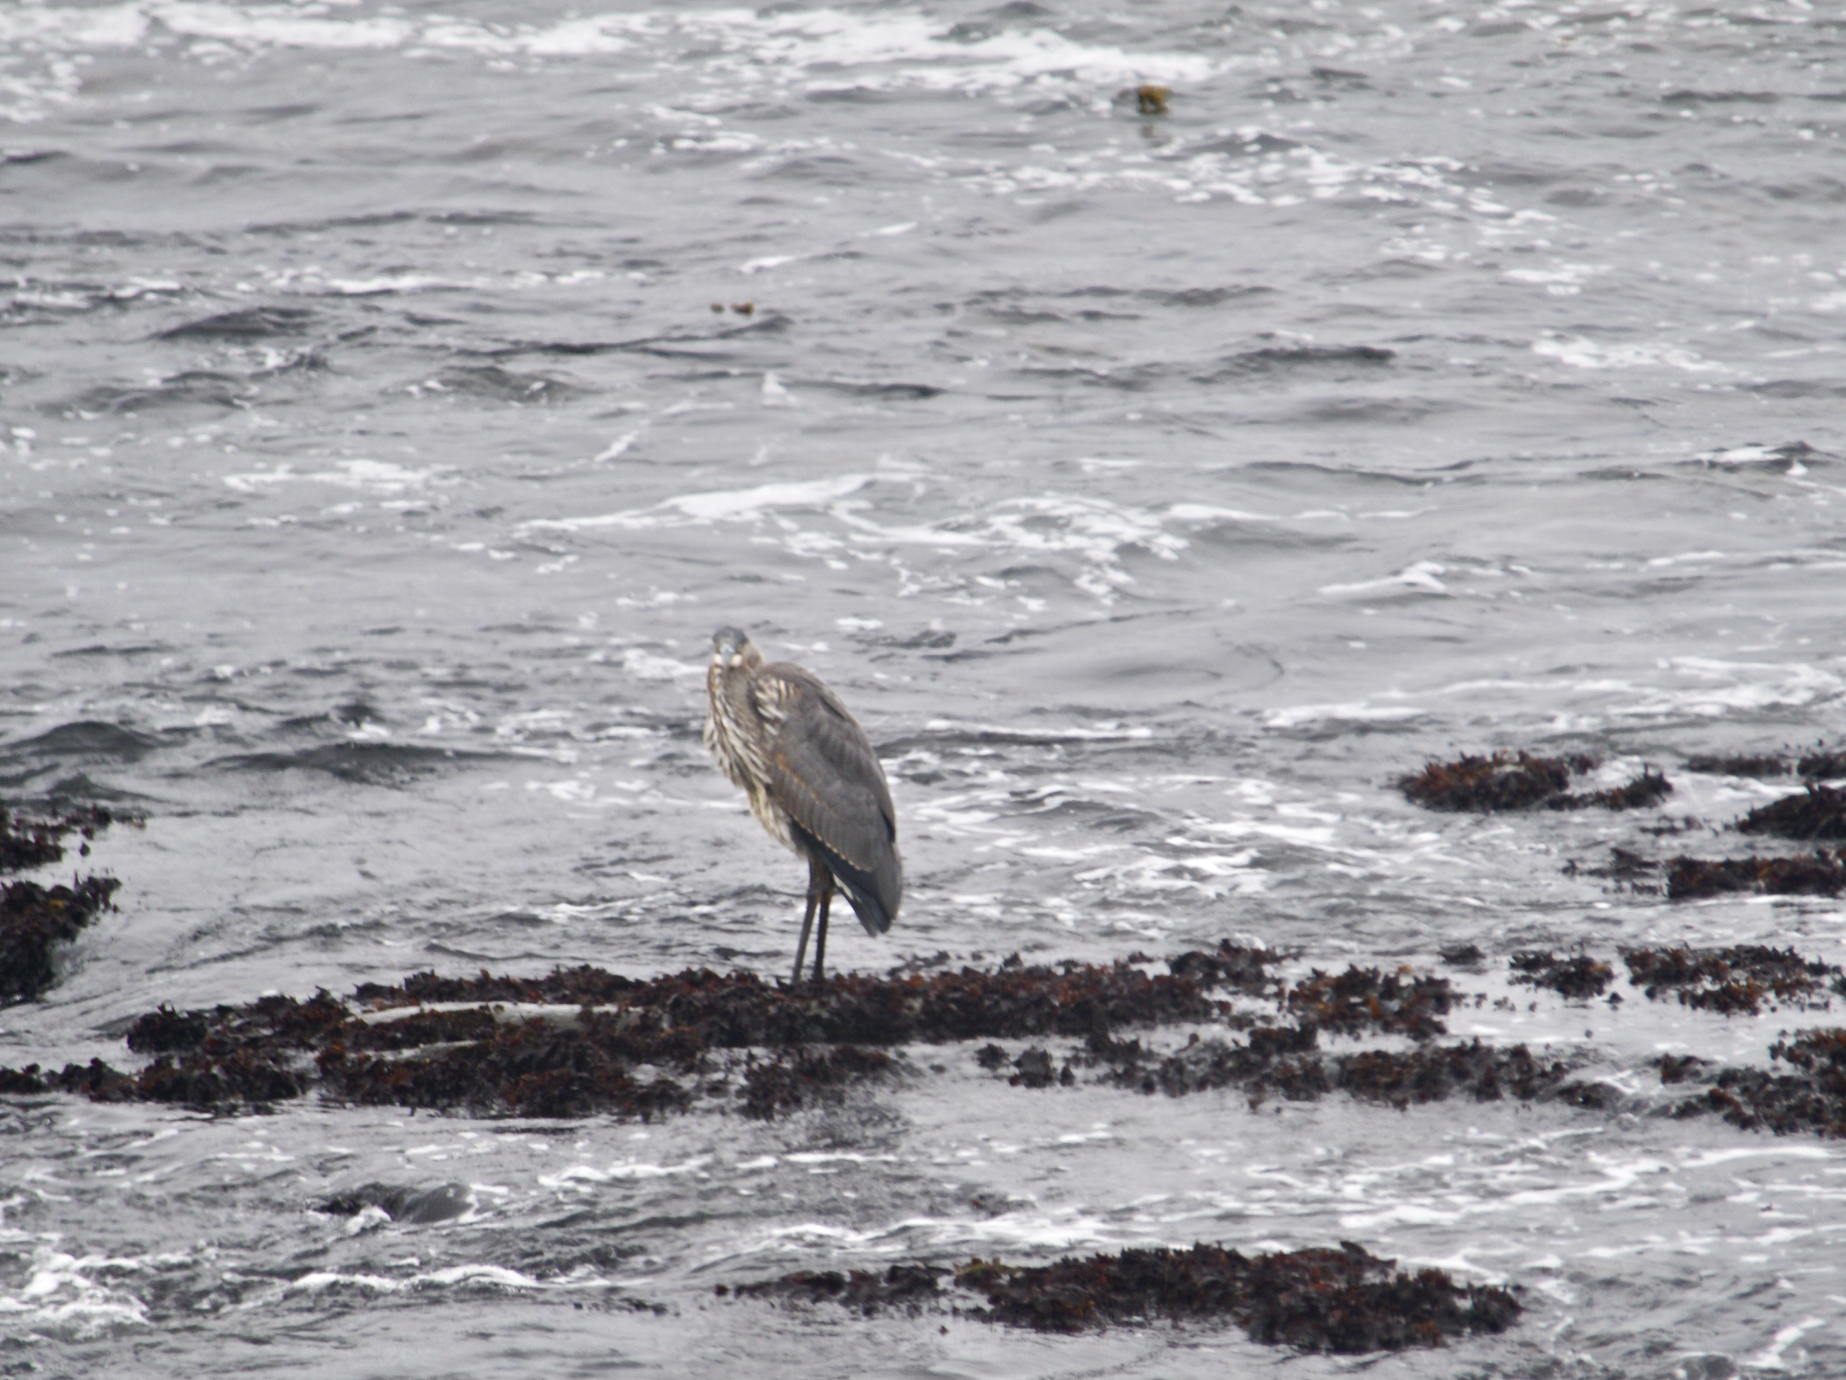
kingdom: Animalia
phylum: Chordata
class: Aves
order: Pelecaniformes
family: Ardeidae
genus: Ardea
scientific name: Ardea herodias
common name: Great blue heron
